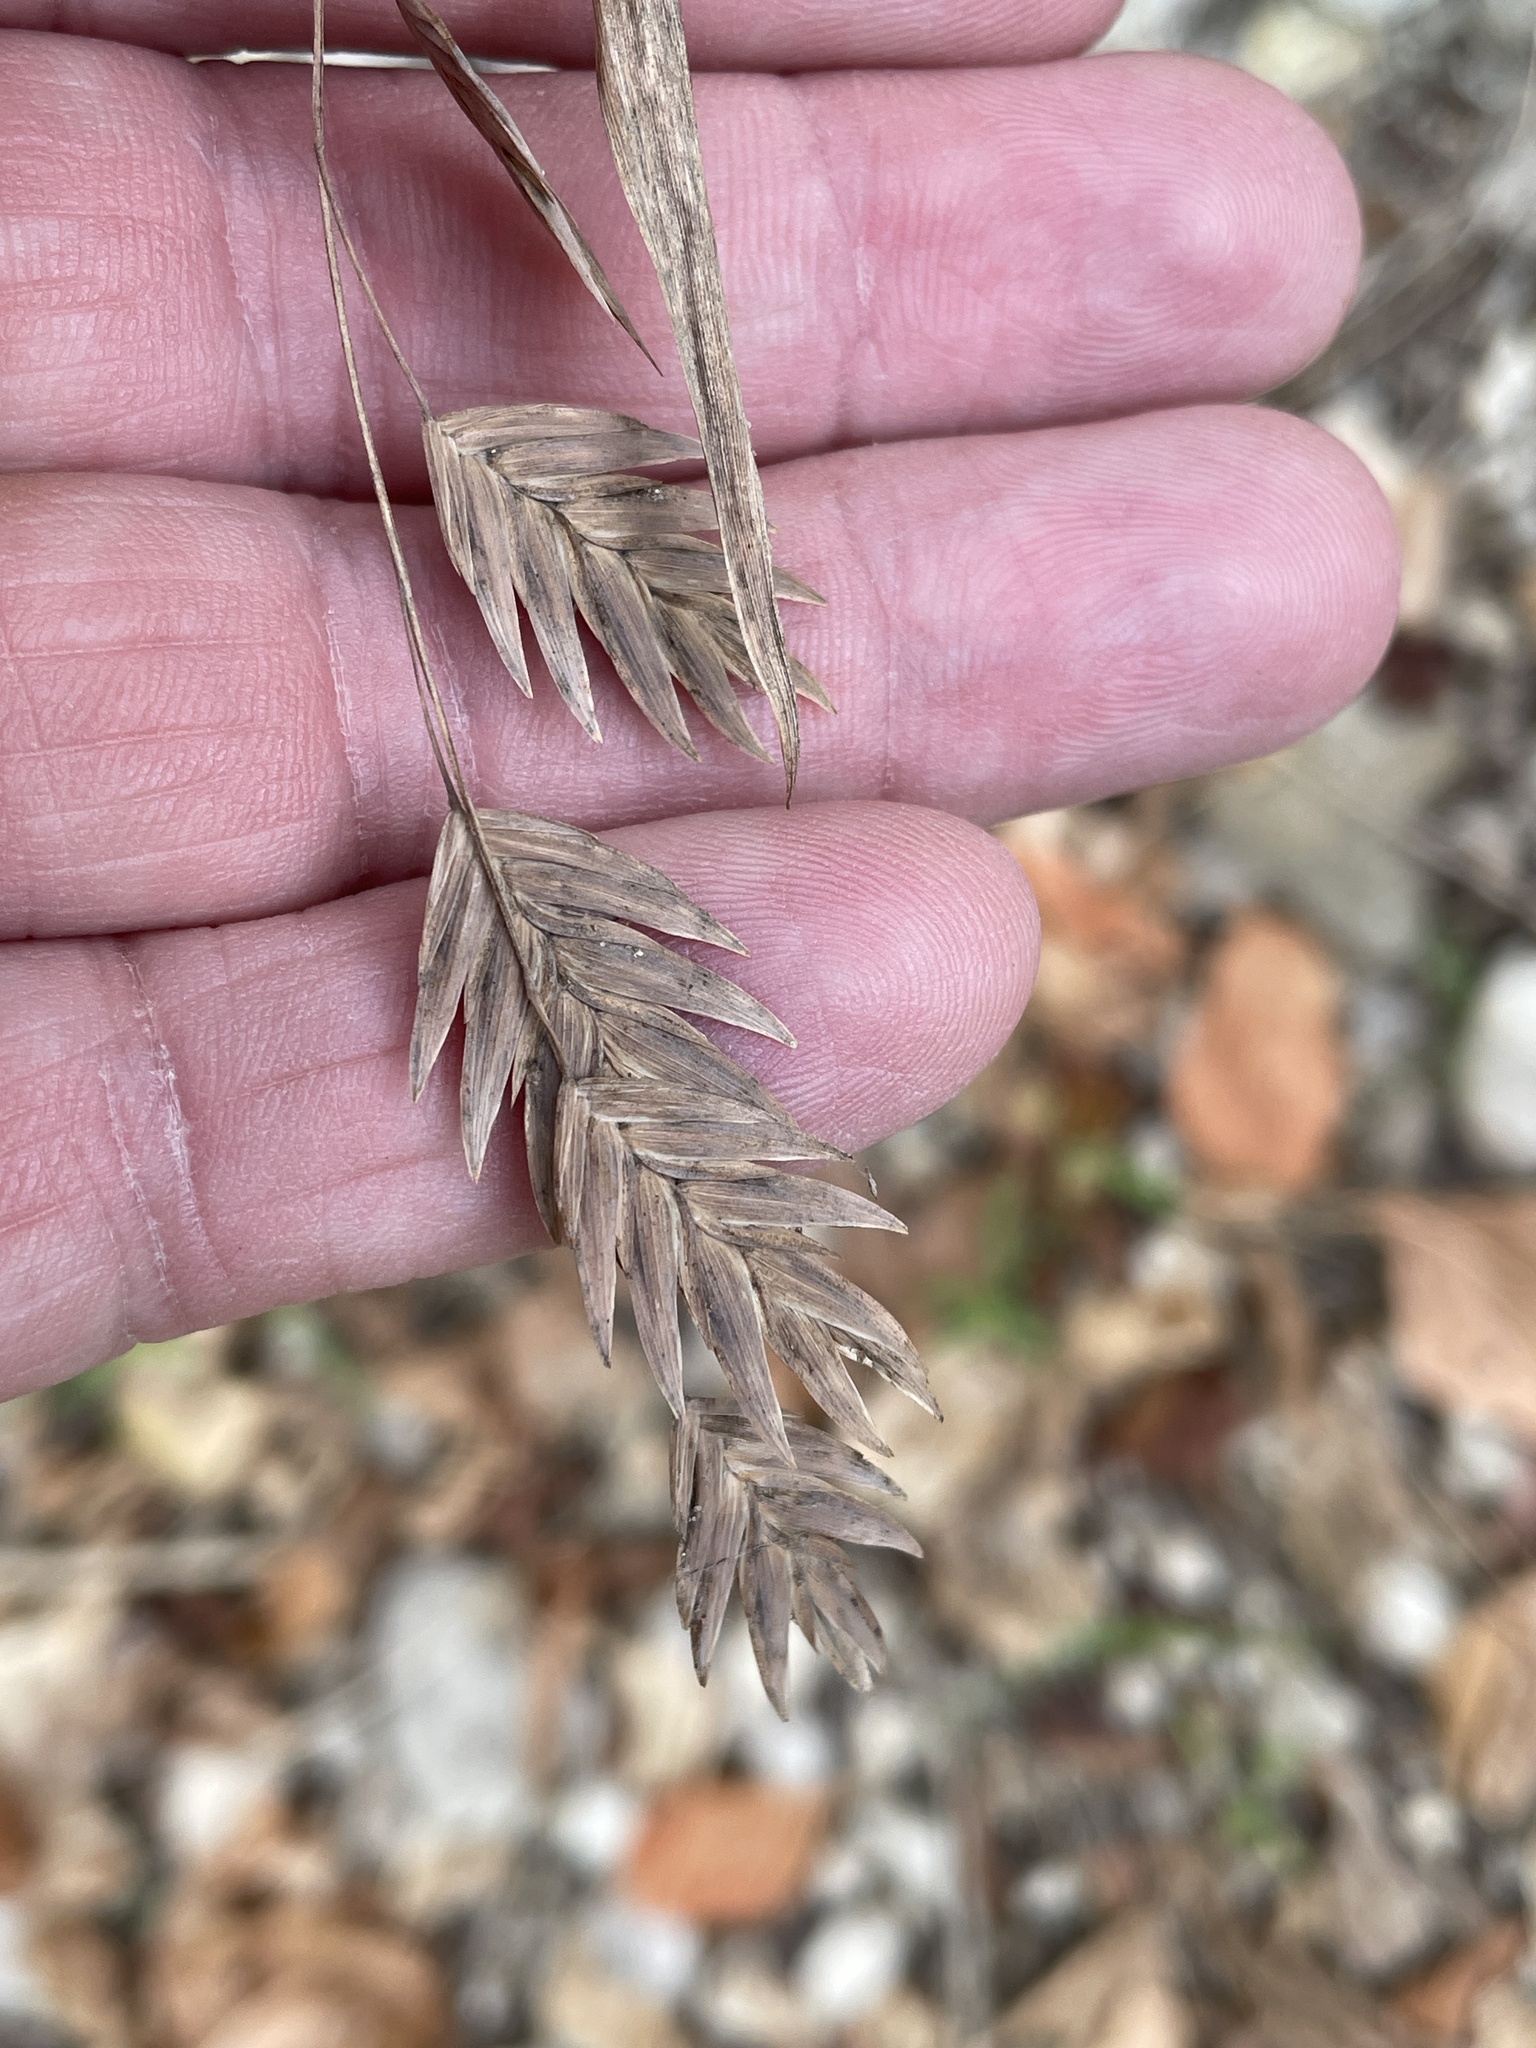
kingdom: Plantae
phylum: Tracheophyta
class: Liliopsida
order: Poales
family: Poaceae
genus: Chasmanthium
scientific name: Chasmanthium latifolium
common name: Broad-leaved chasmanthium
